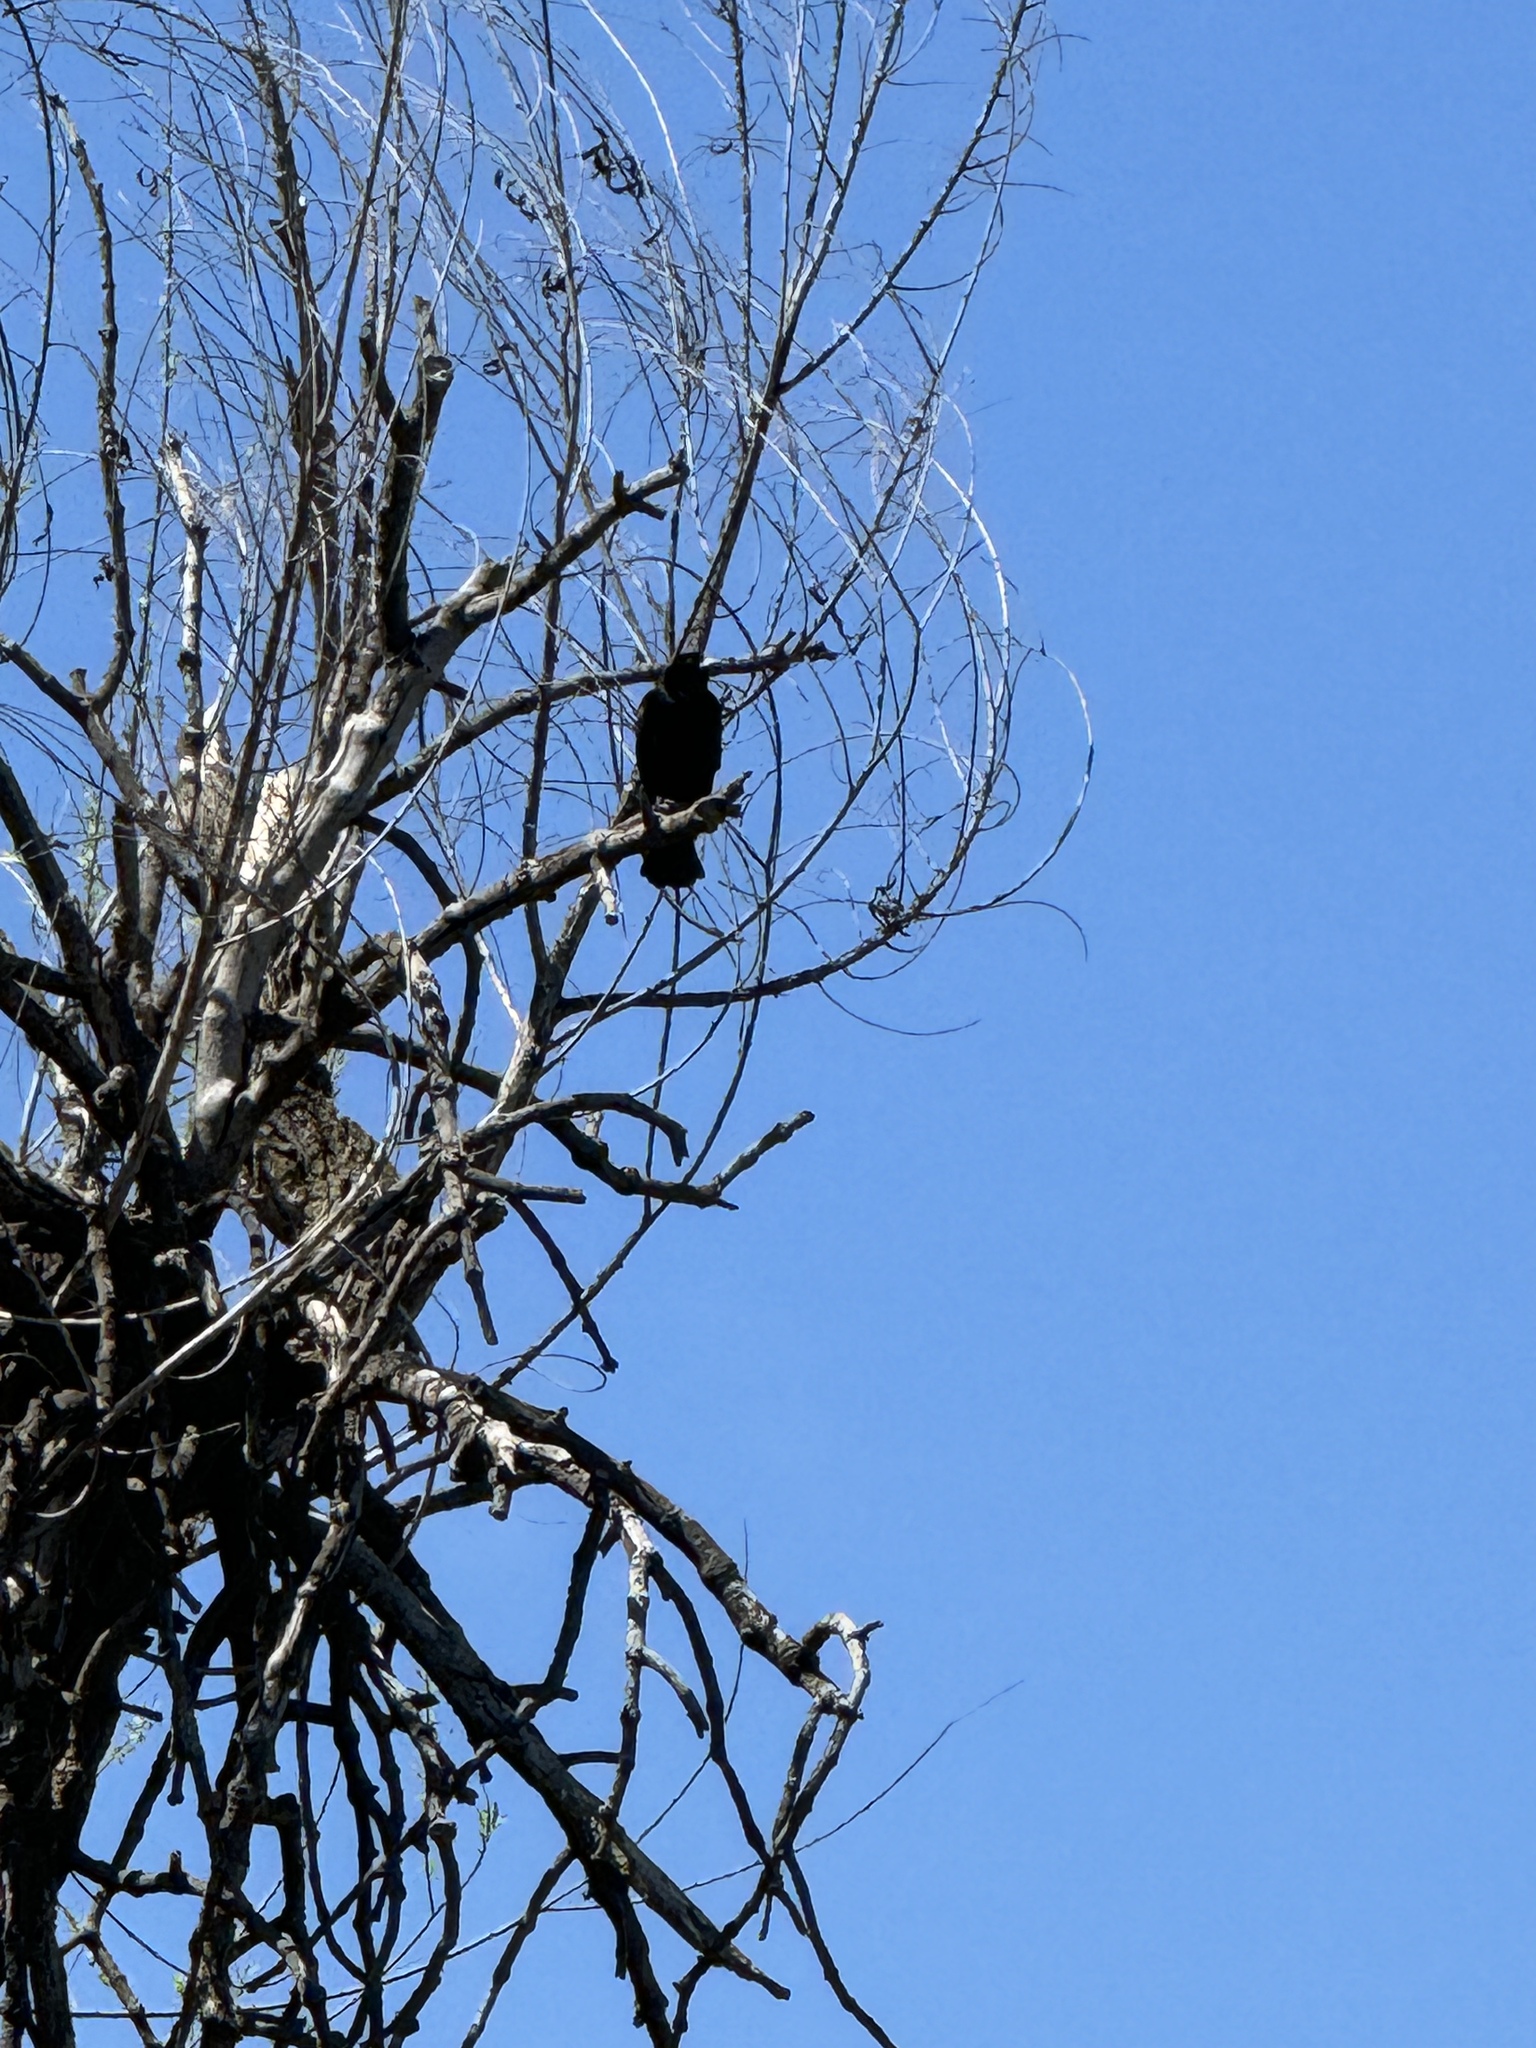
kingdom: Animalia
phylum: Chordata
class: Aves
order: Passeriformes
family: Icteridae
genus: Agelaius
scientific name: Agelaius phoeniceus
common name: Red-winged blackbird
